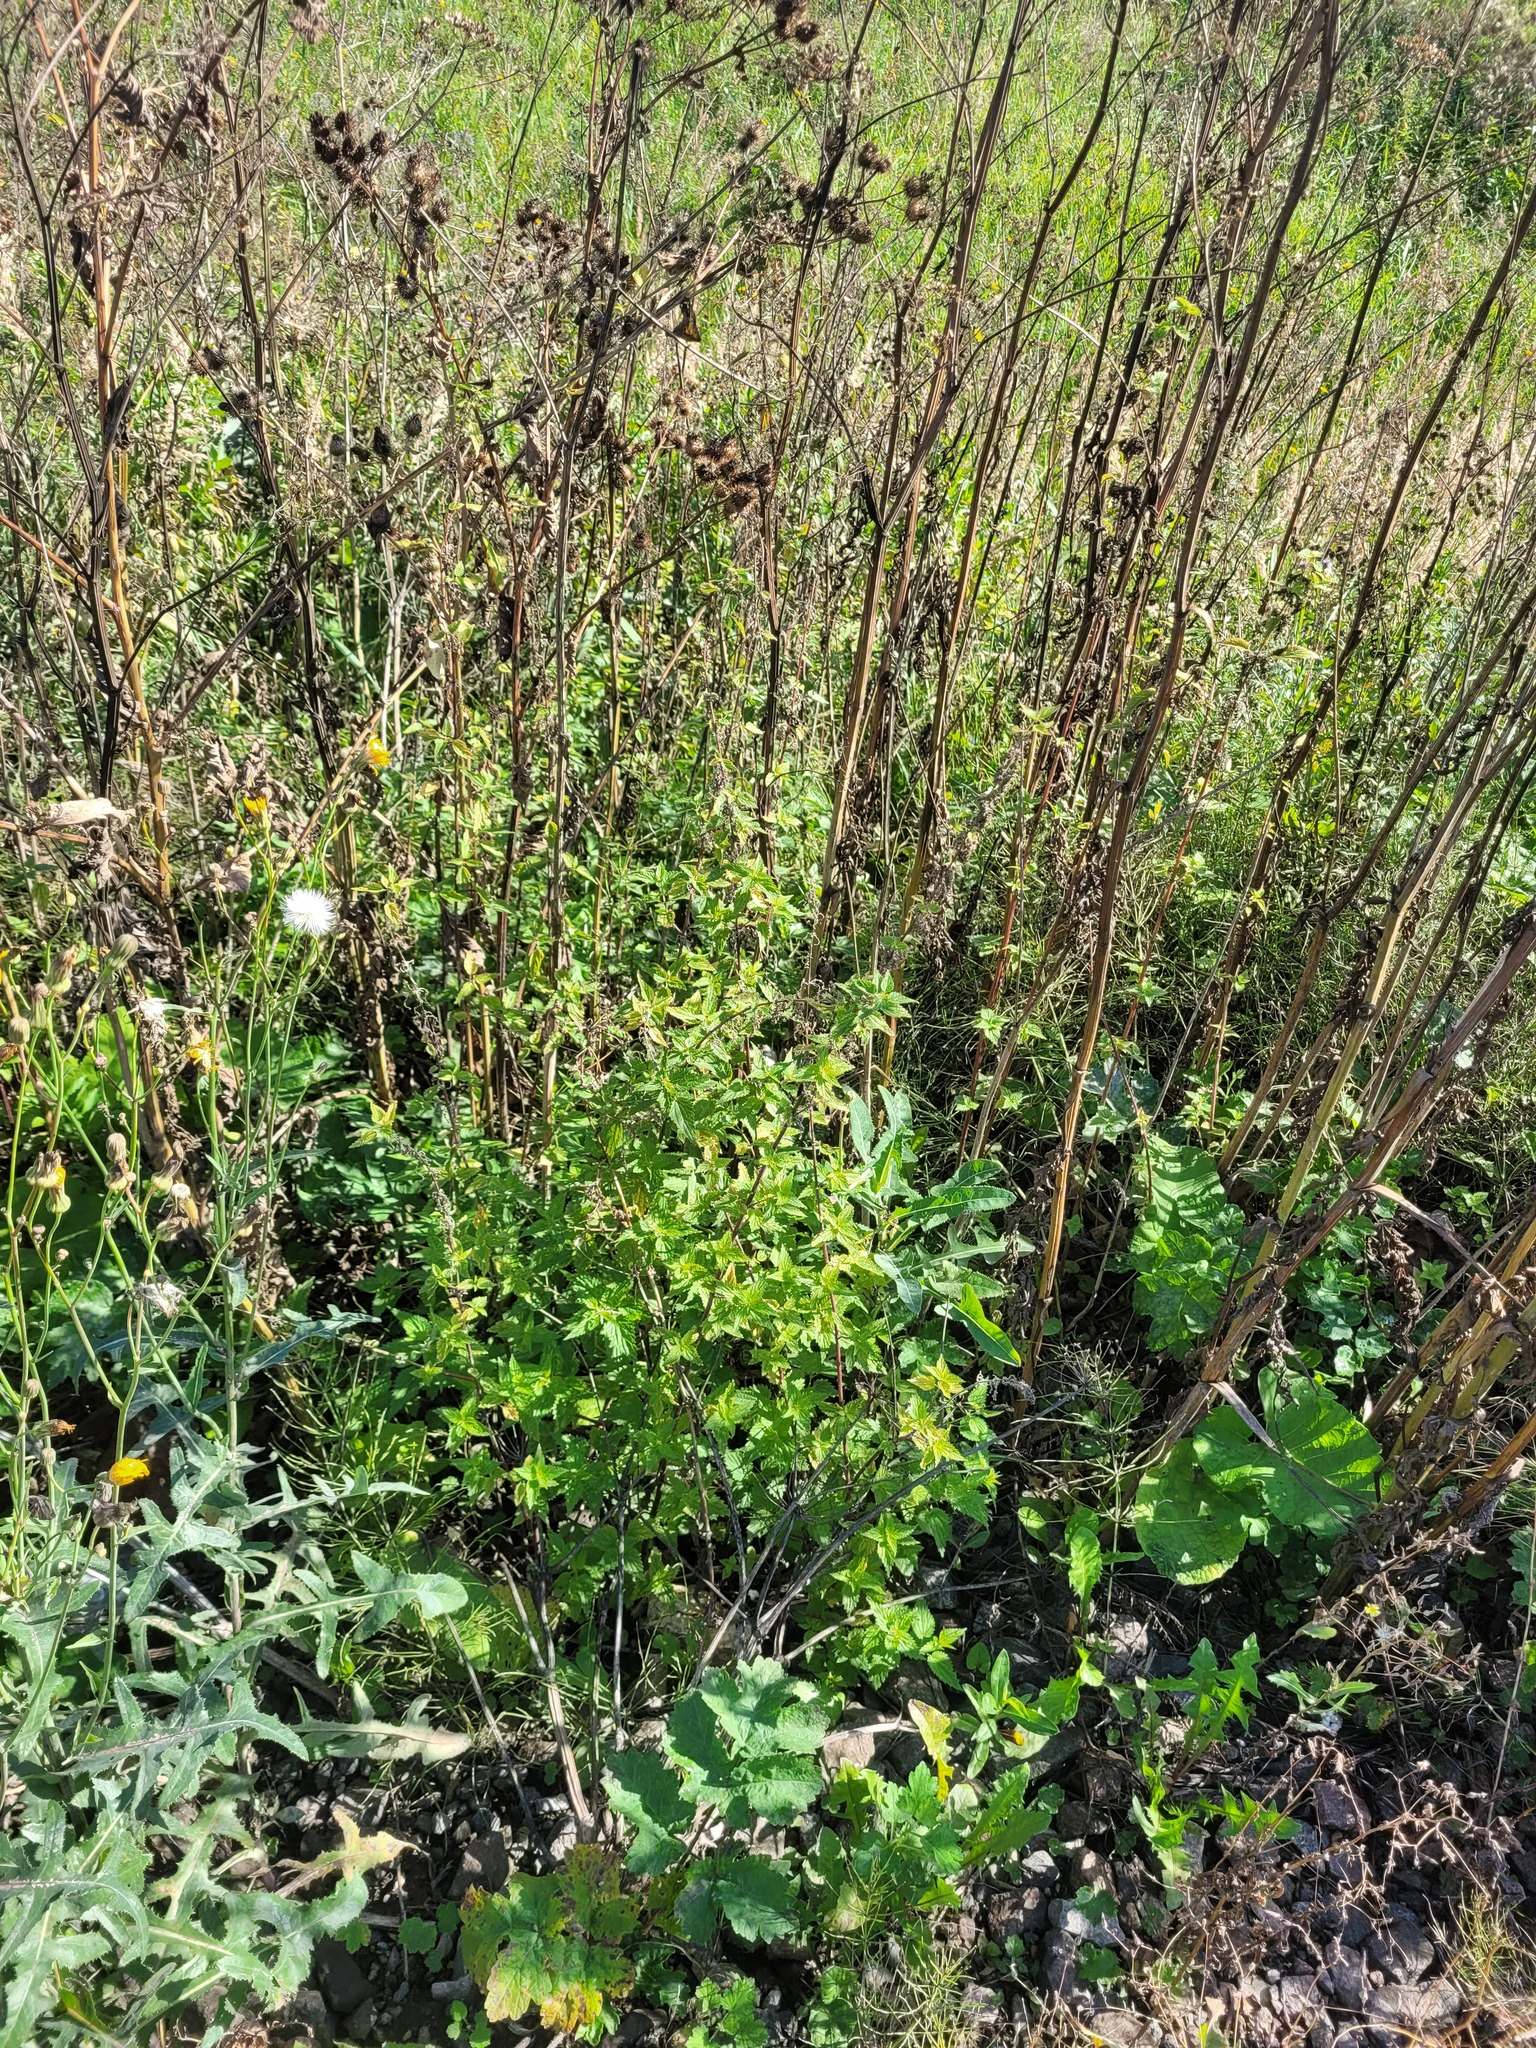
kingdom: Plantae
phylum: Tracheophyta
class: Magnoliopsida
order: Rosales
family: Urticaceae
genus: Urtica
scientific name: Urtica dioica
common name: Common nettle
